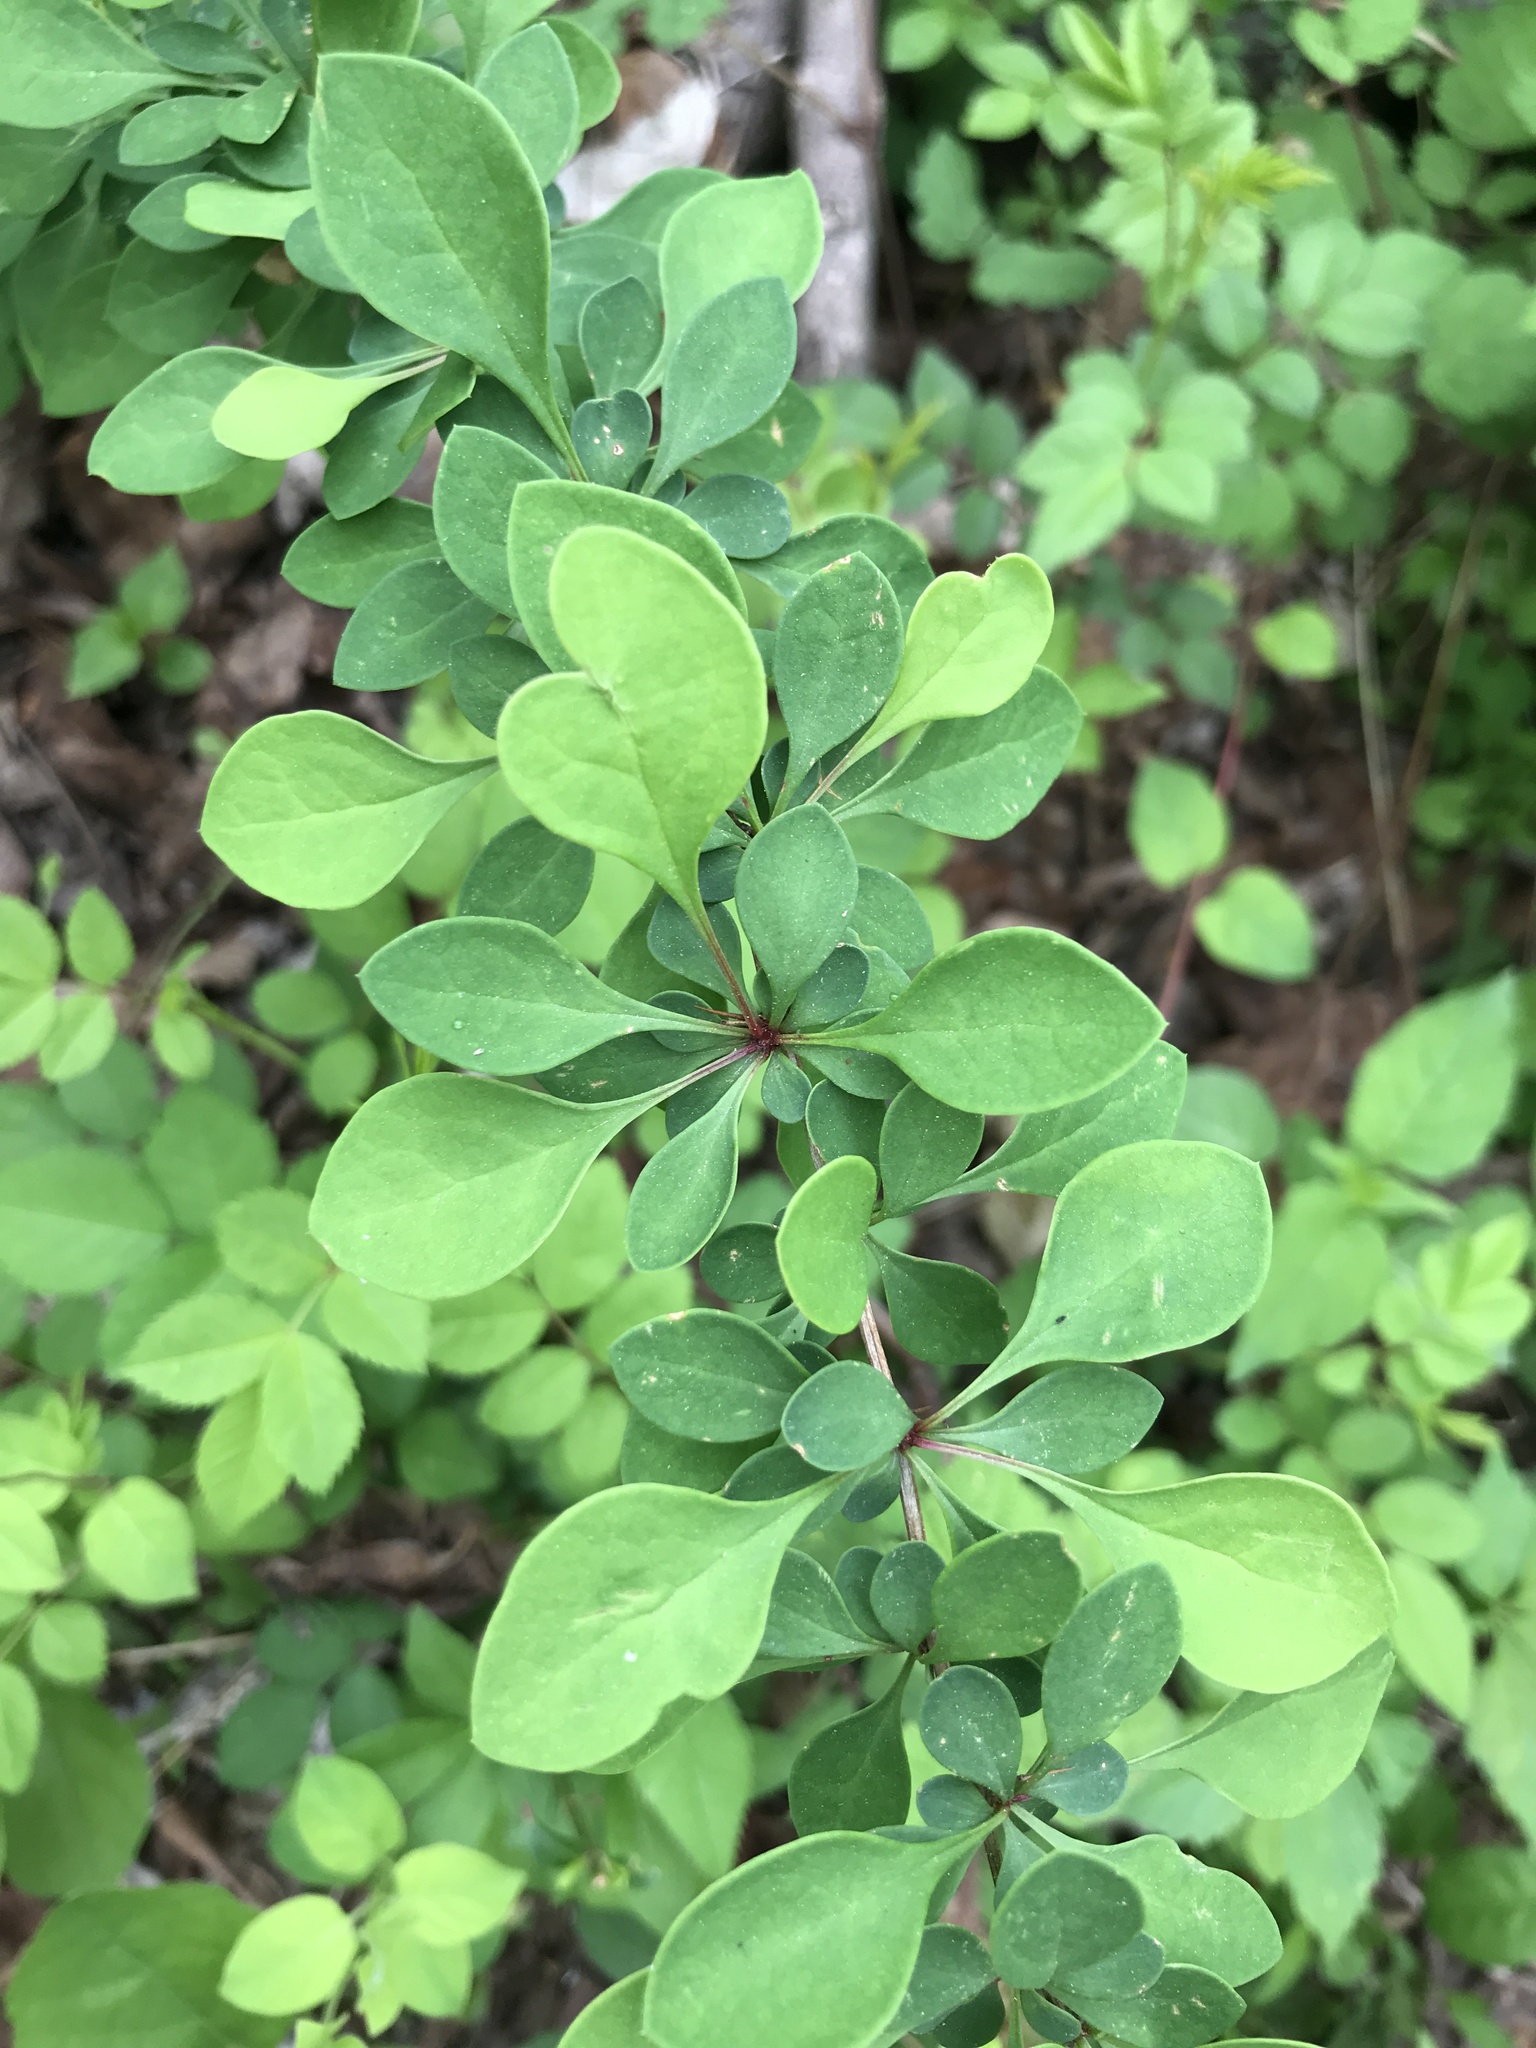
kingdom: Plantae
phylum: Tracheophyta
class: Magnoliopsida
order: Ranunculales
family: Berberidaceae
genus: Berberis
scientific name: Berberis thunbergii
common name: Japanese barberry
